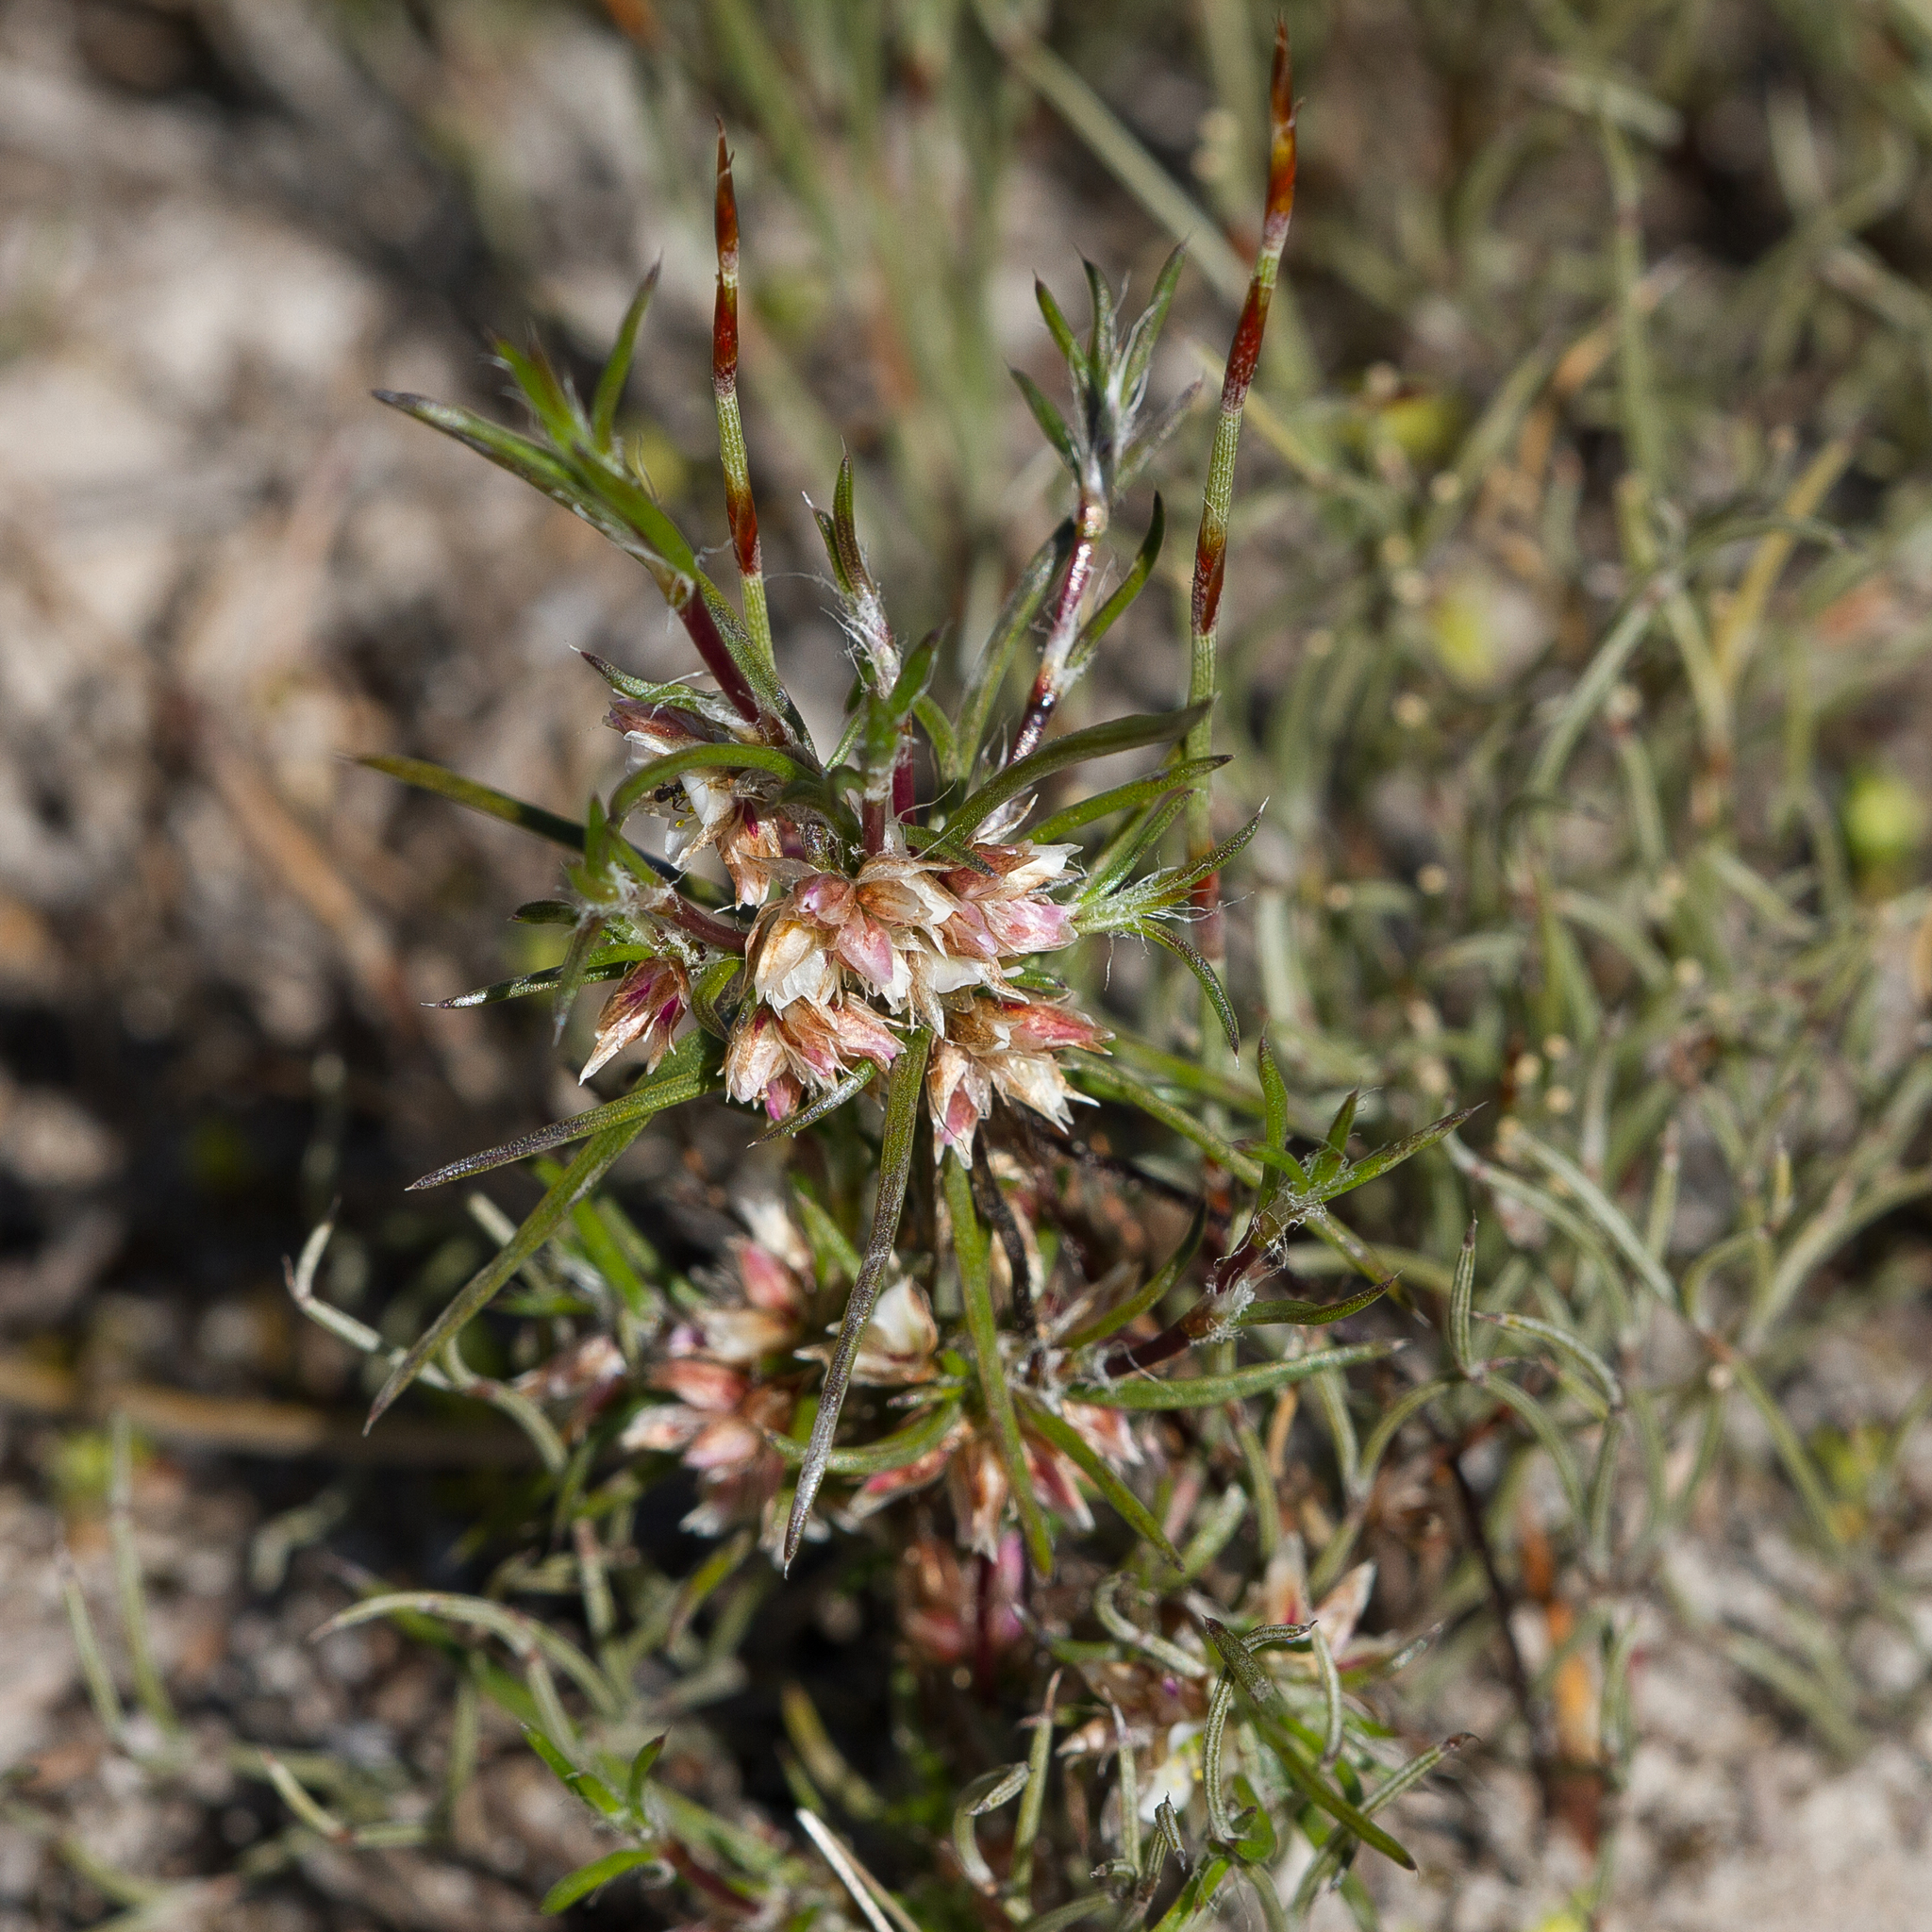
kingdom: Plantae
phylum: Tracheophyta
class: Liliopsida
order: Asparagales
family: Asparagaceae
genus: Laxmannia
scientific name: Laxmannia orientalis
